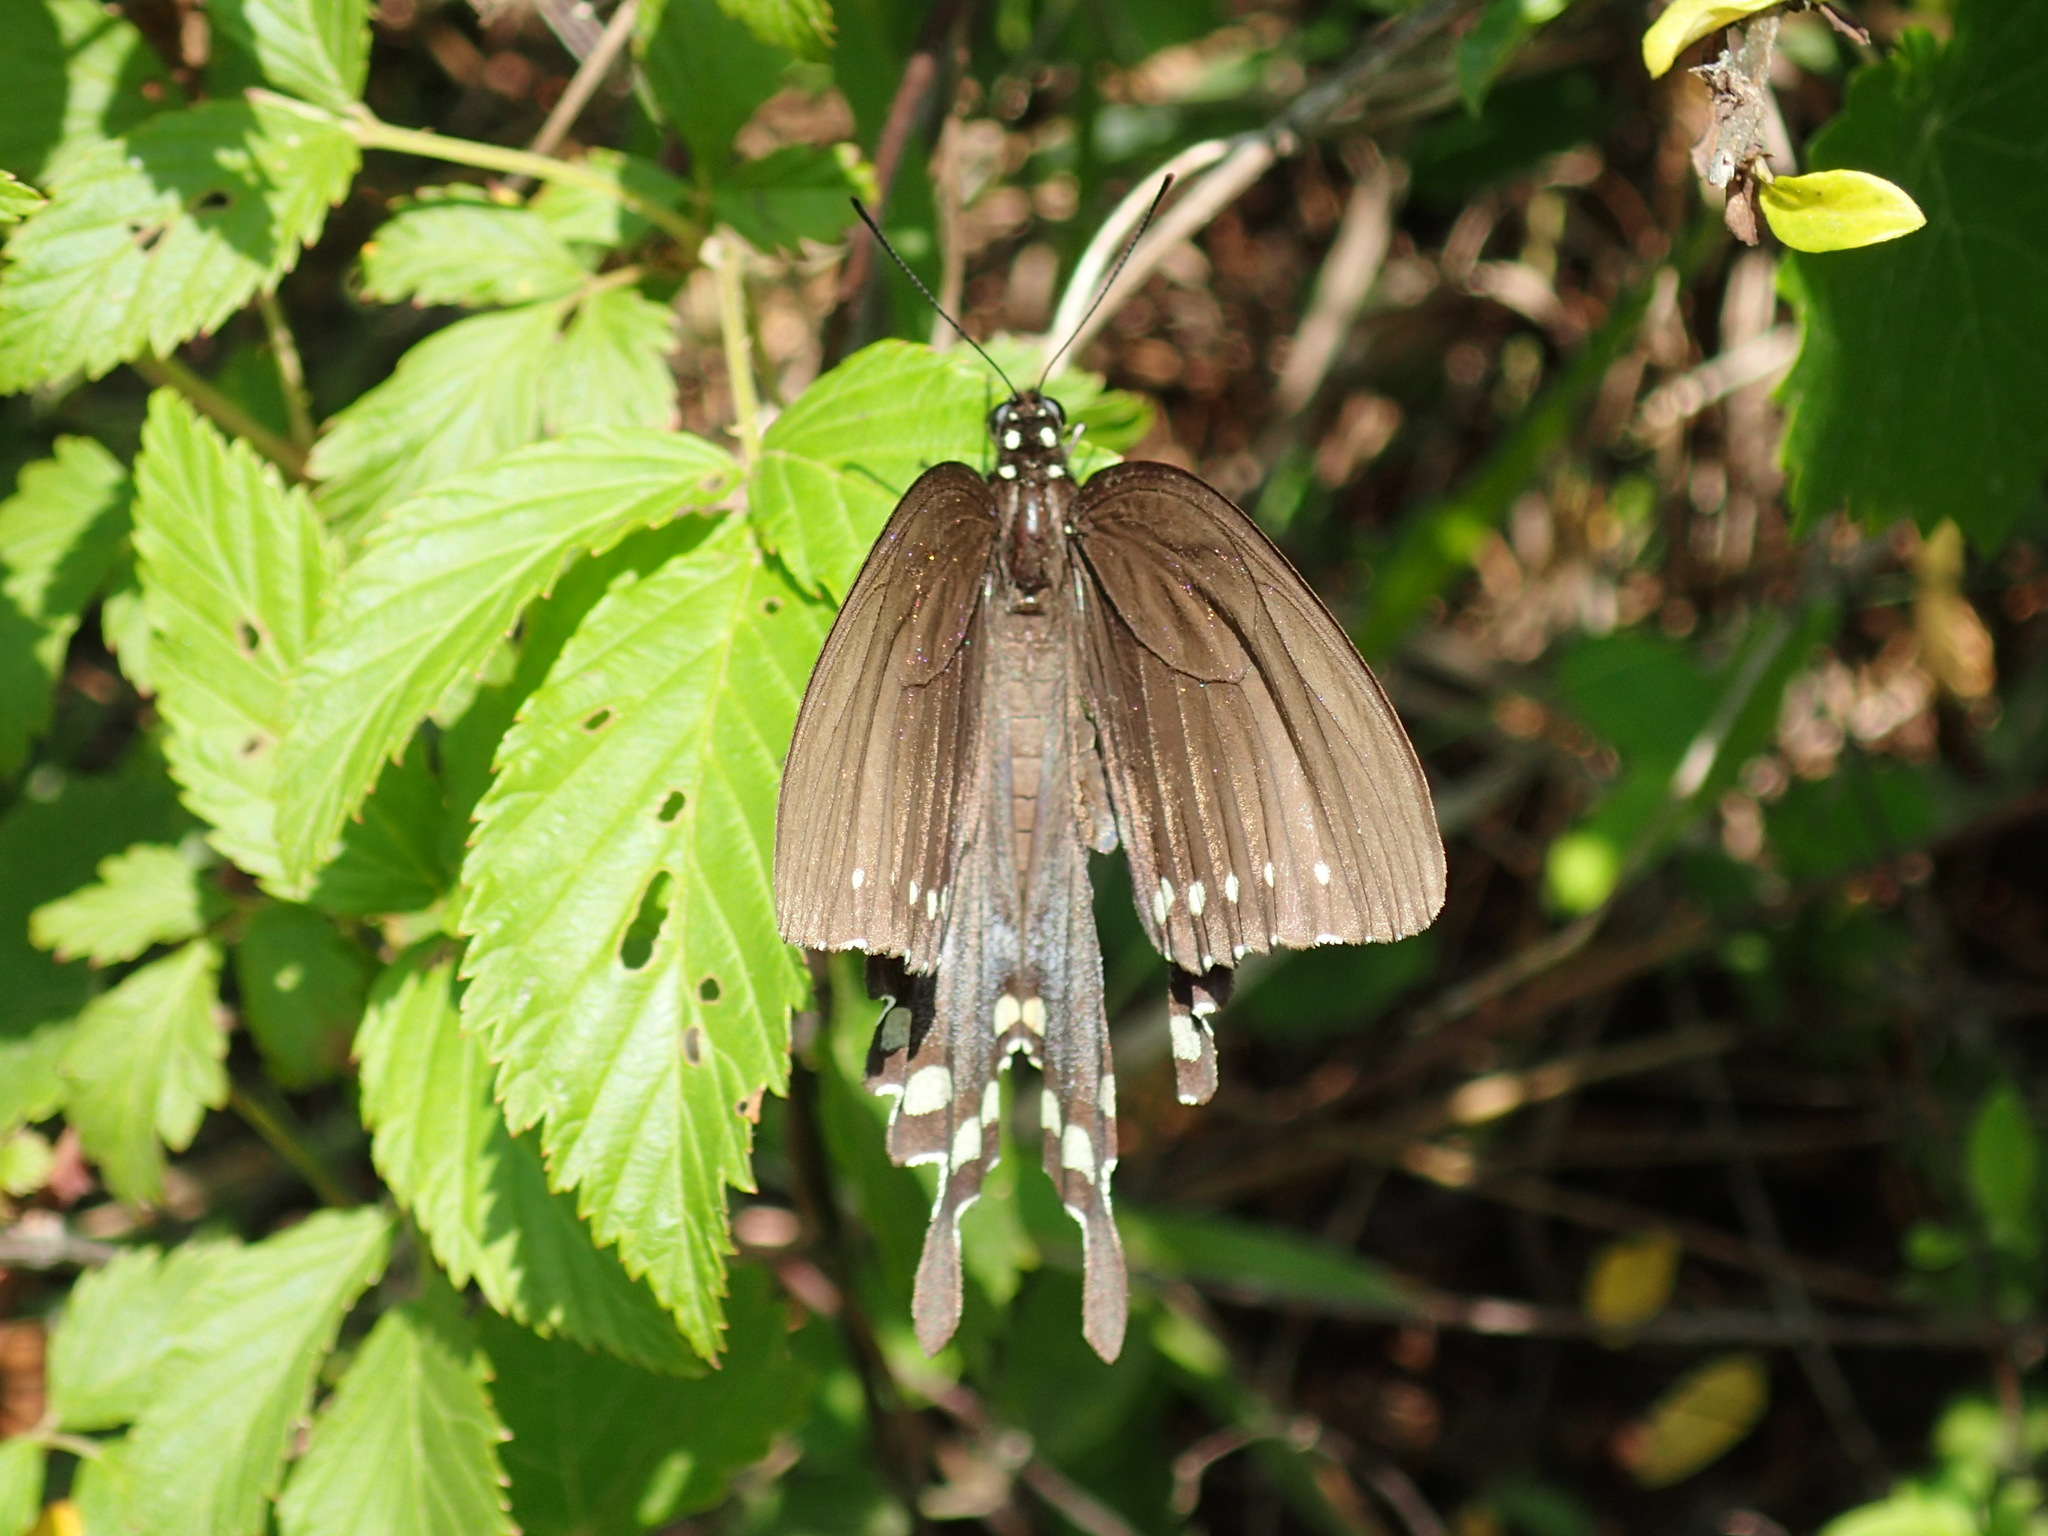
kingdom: Animalia
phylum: Arthropoda
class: Insecta
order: Lepidoptera
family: Papilionidae
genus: Papilio
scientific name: Papilio troilus
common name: Spicebush swallowtail
